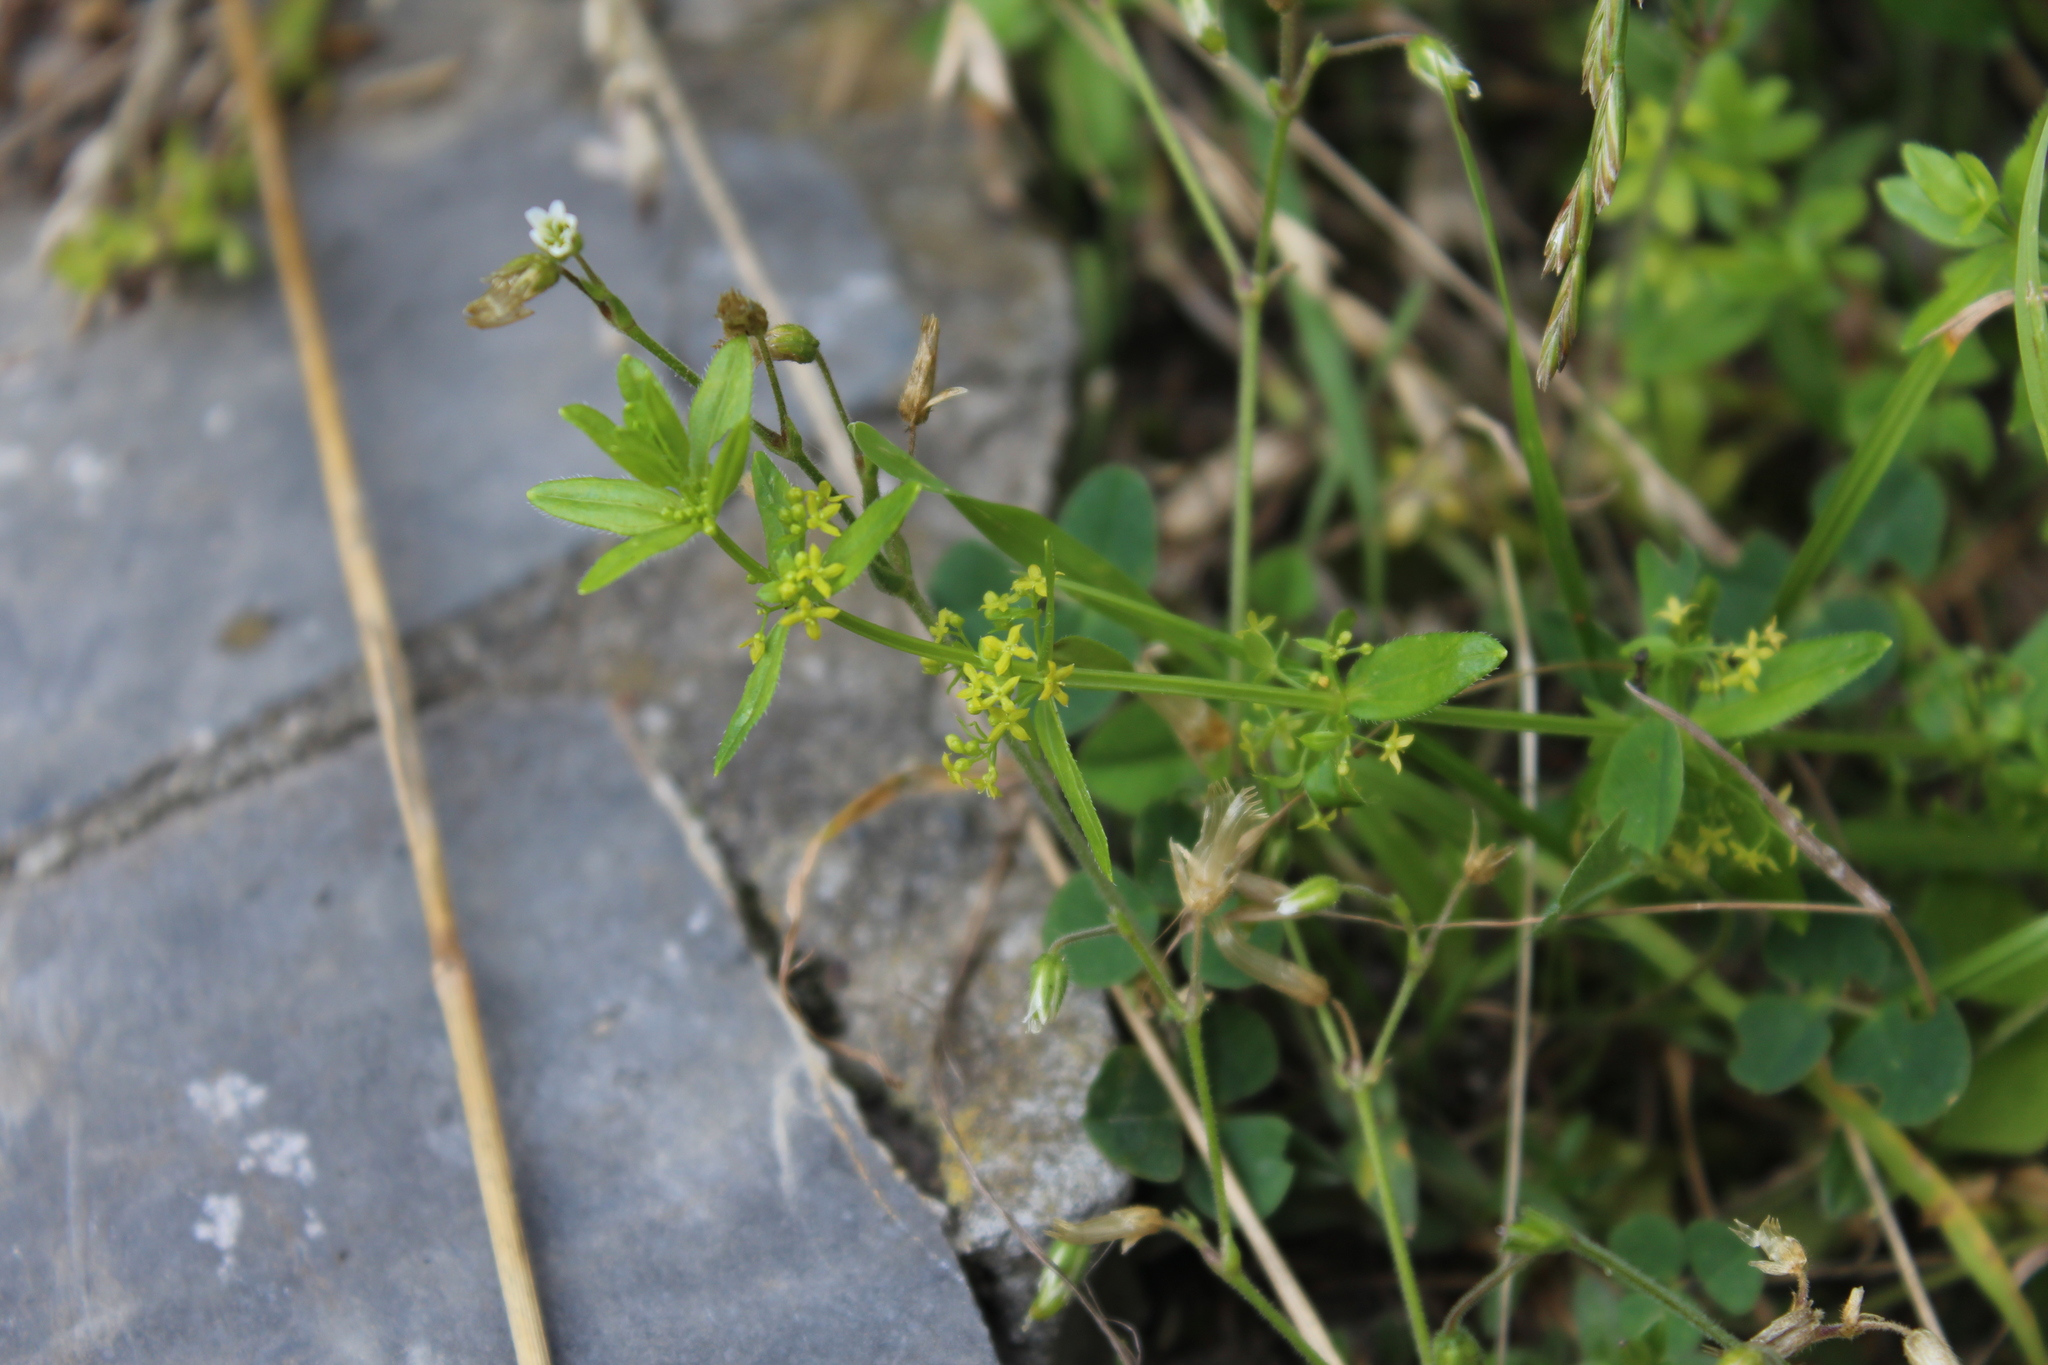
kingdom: Plantae
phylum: Tracheophyta
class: Magnoliopsida
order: Gentianales
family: Rubiaceae
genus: Cruciata
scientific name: Cruciata laevipes
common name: Crosswort
